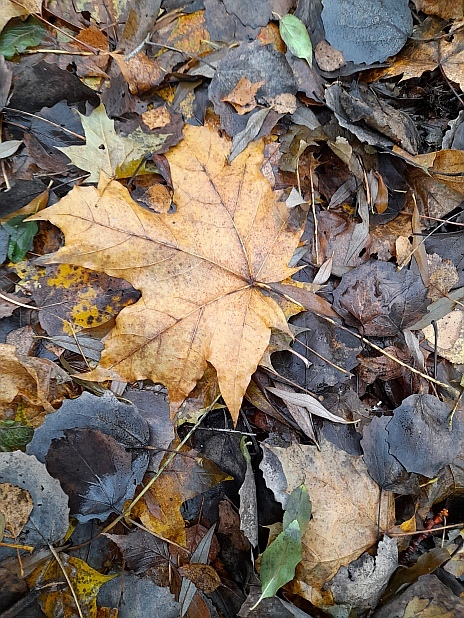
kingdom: Plantae
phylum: Tracheophyta
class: Magnoliopsida
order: Sapindales
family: Sapindaceae
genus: Acer
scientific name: Acer platanoides
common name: Norway maple
